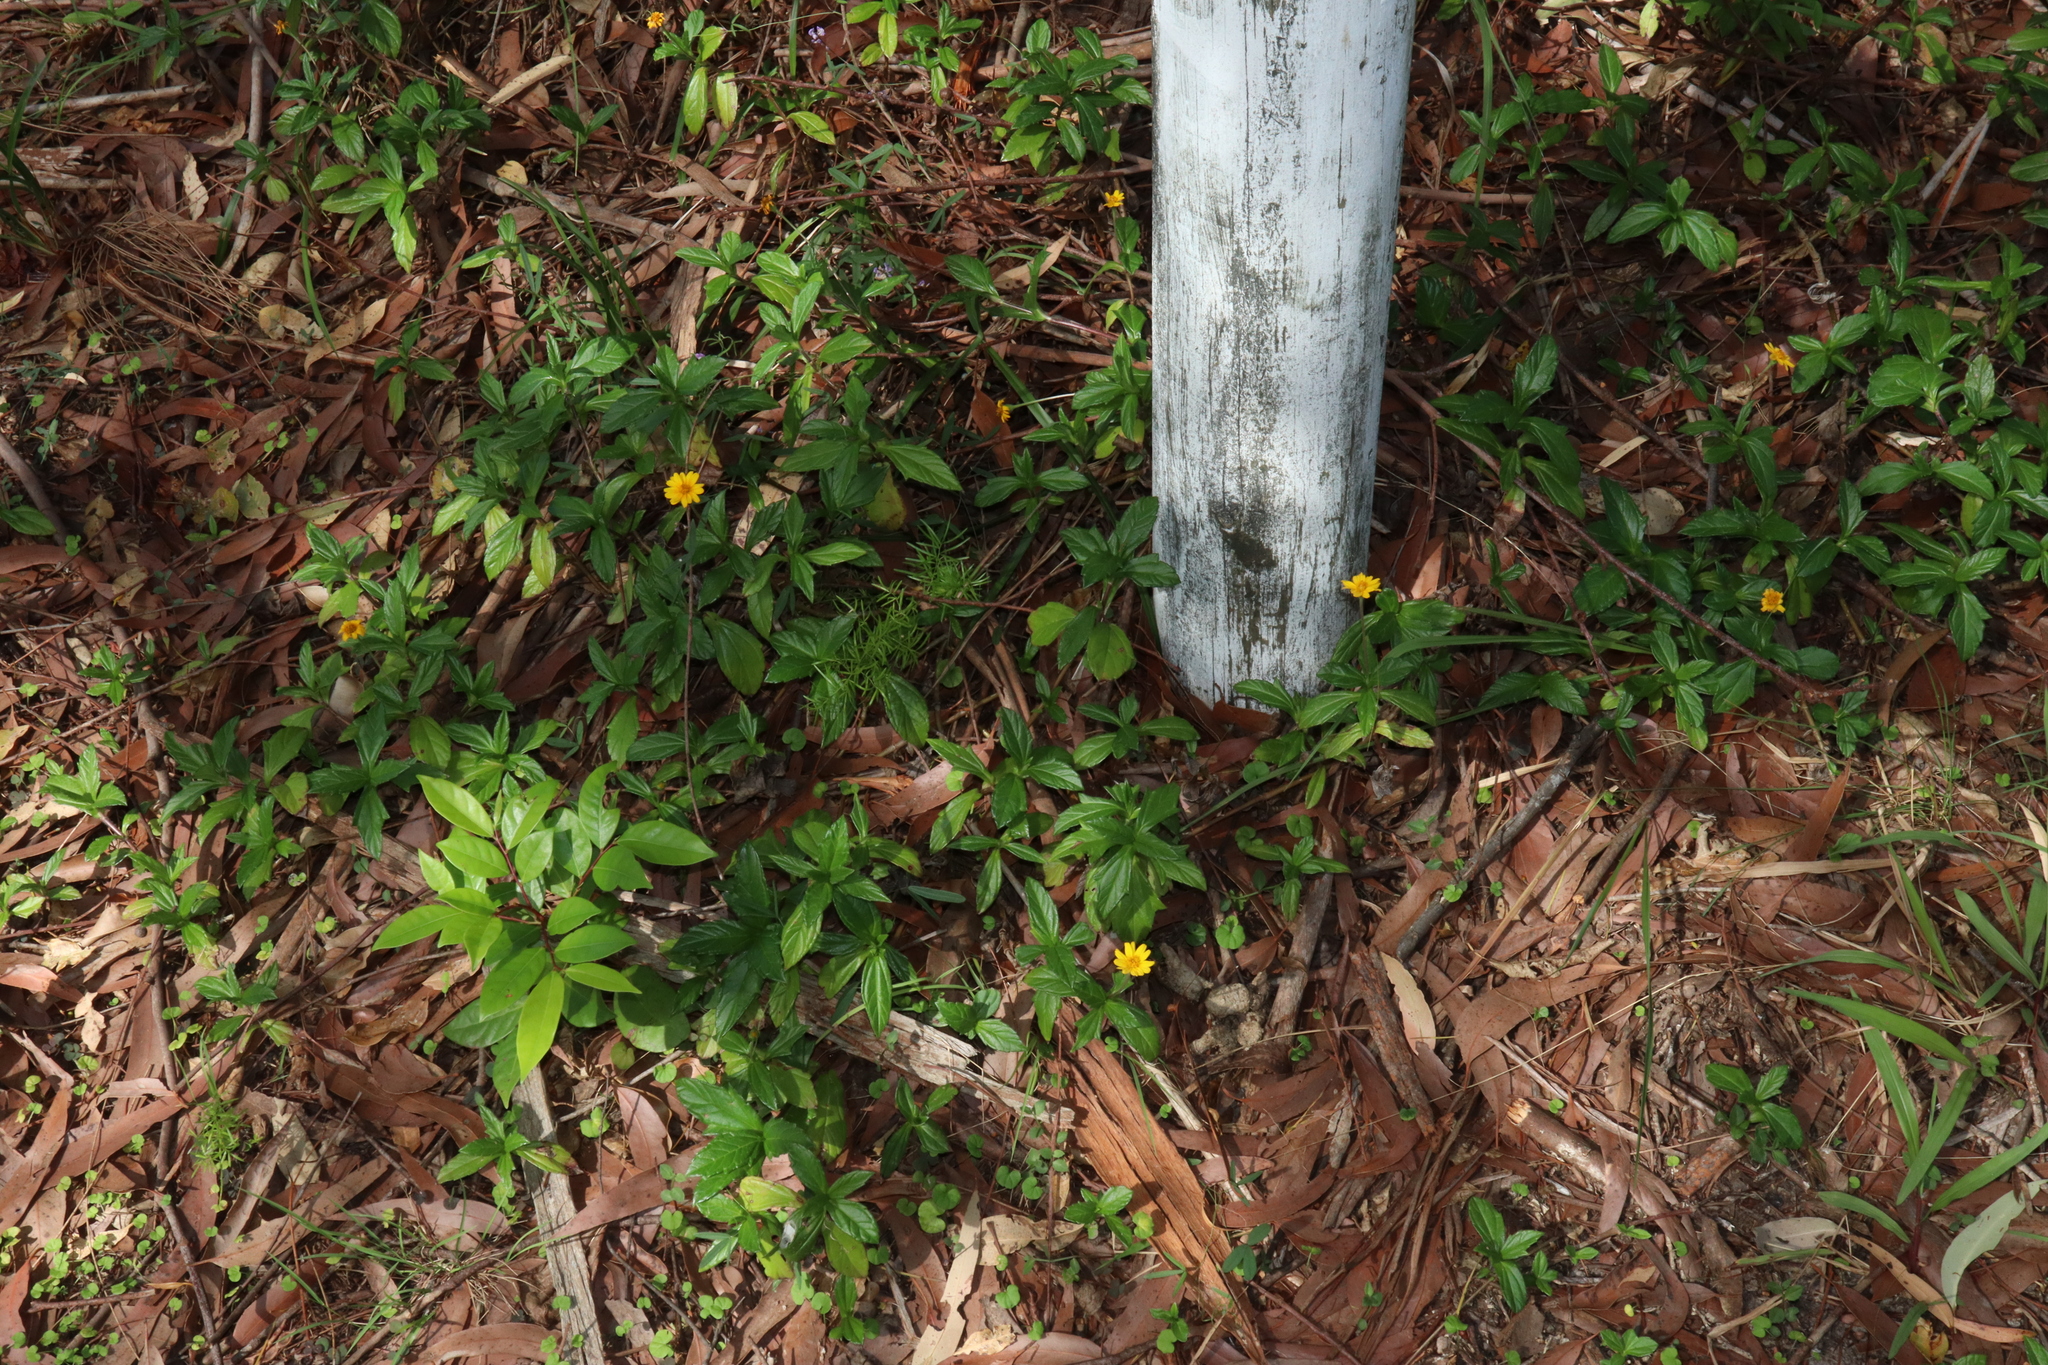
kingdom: Plantae
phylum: Tracheophyta
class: Magnoliopsida
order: Asterales
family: Asteraceae
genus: Sphagneticola
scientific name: Sphagneticola trilobata
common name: Bay biscayne creeping-oxeye
